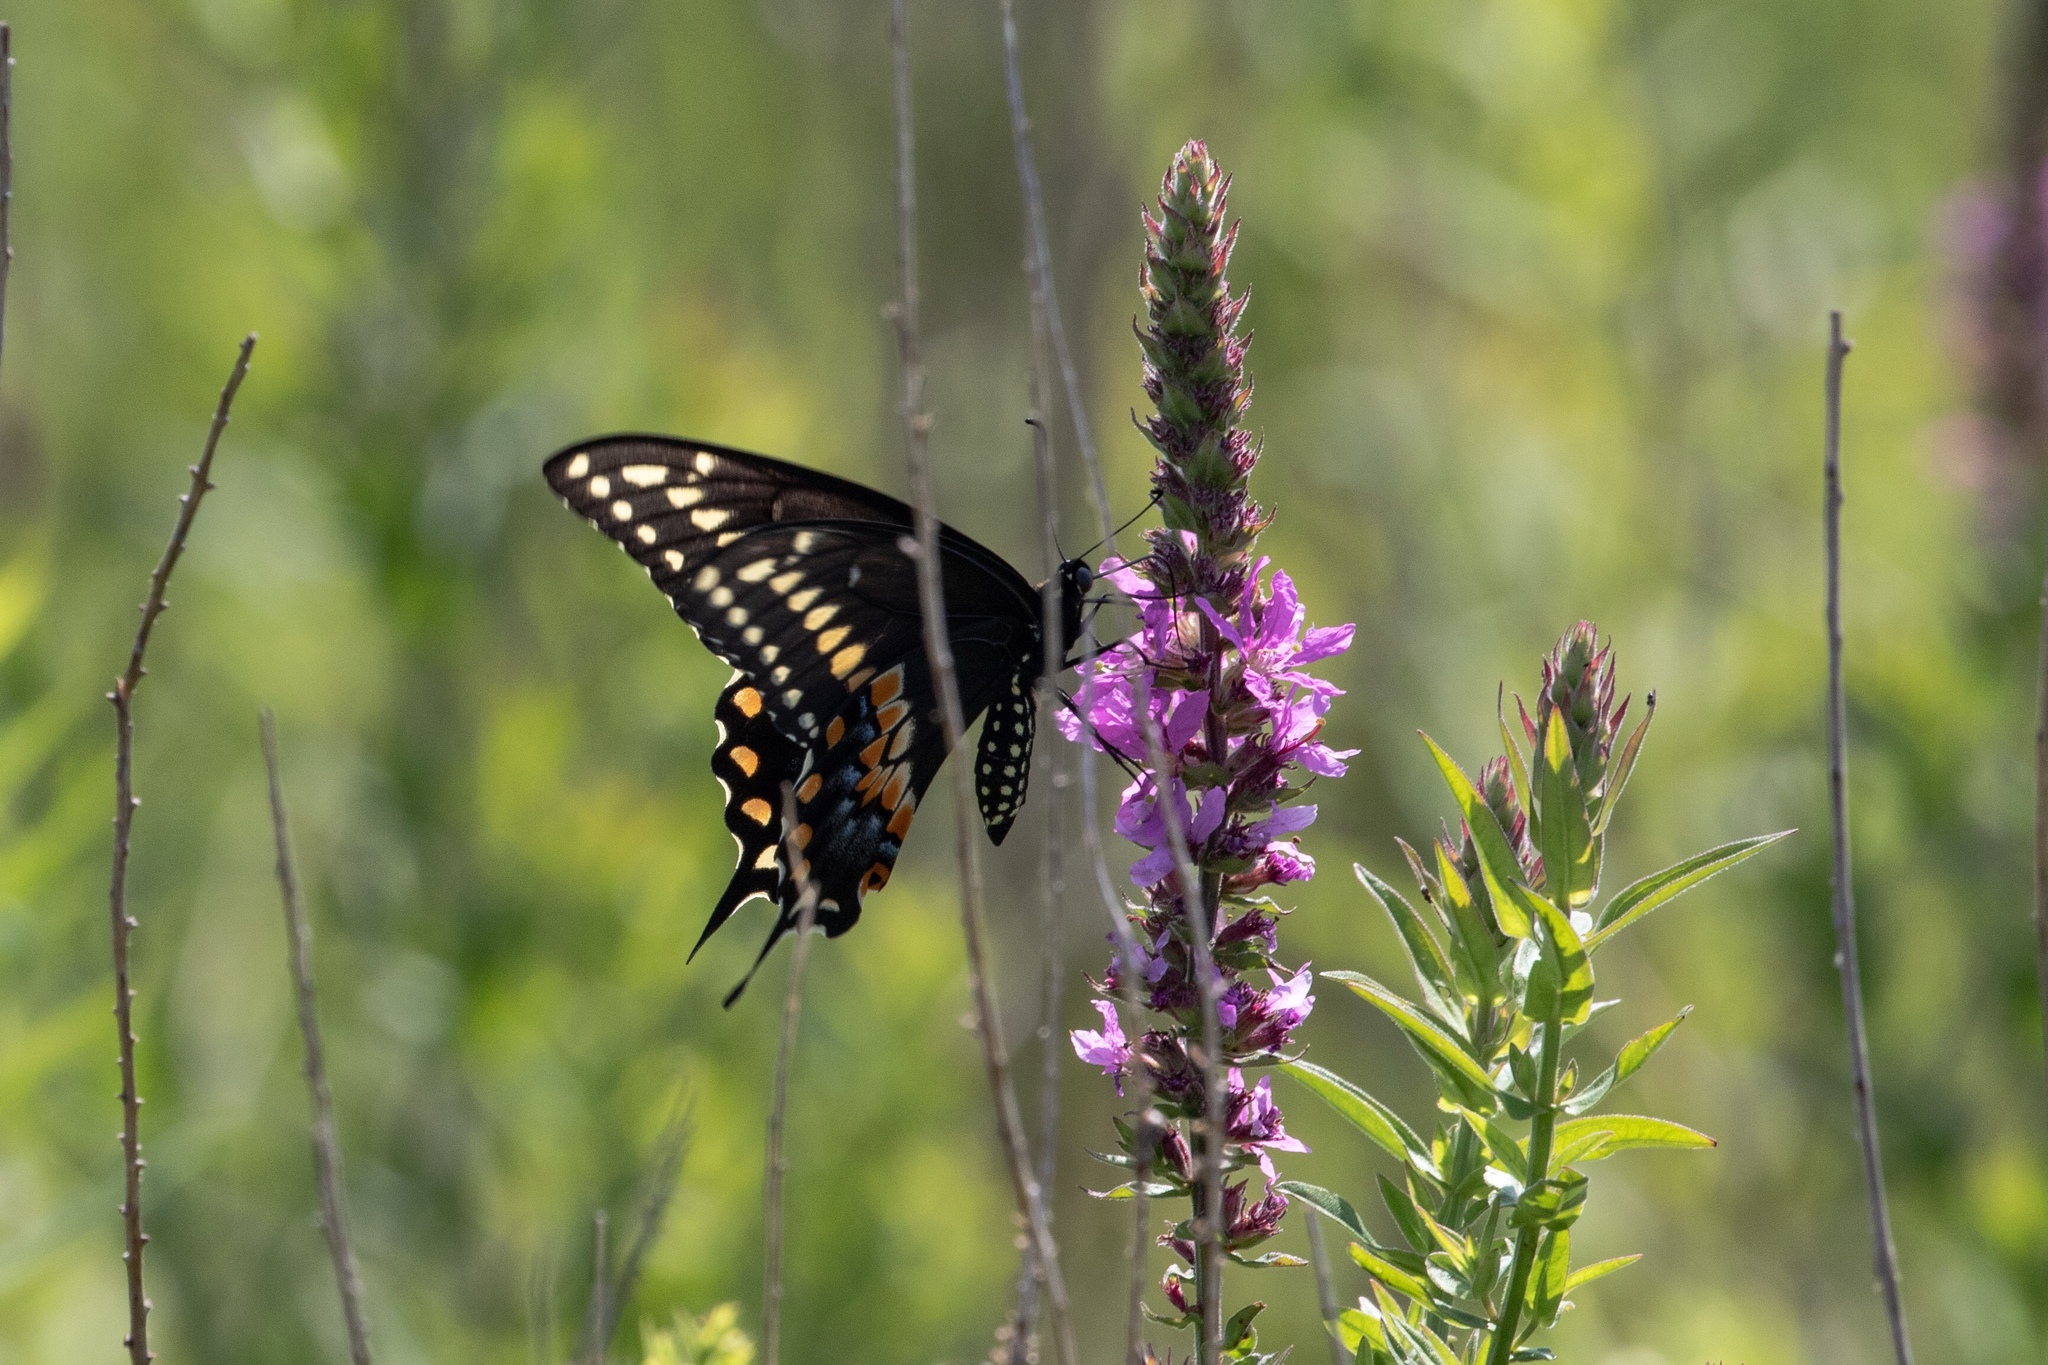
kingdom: Animalia
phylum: Arthropoda
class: Insecta
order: Lepidoptera
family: Papilionidae
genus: Papilio
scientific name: Papilio polyxenes
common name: Black swallowtail
